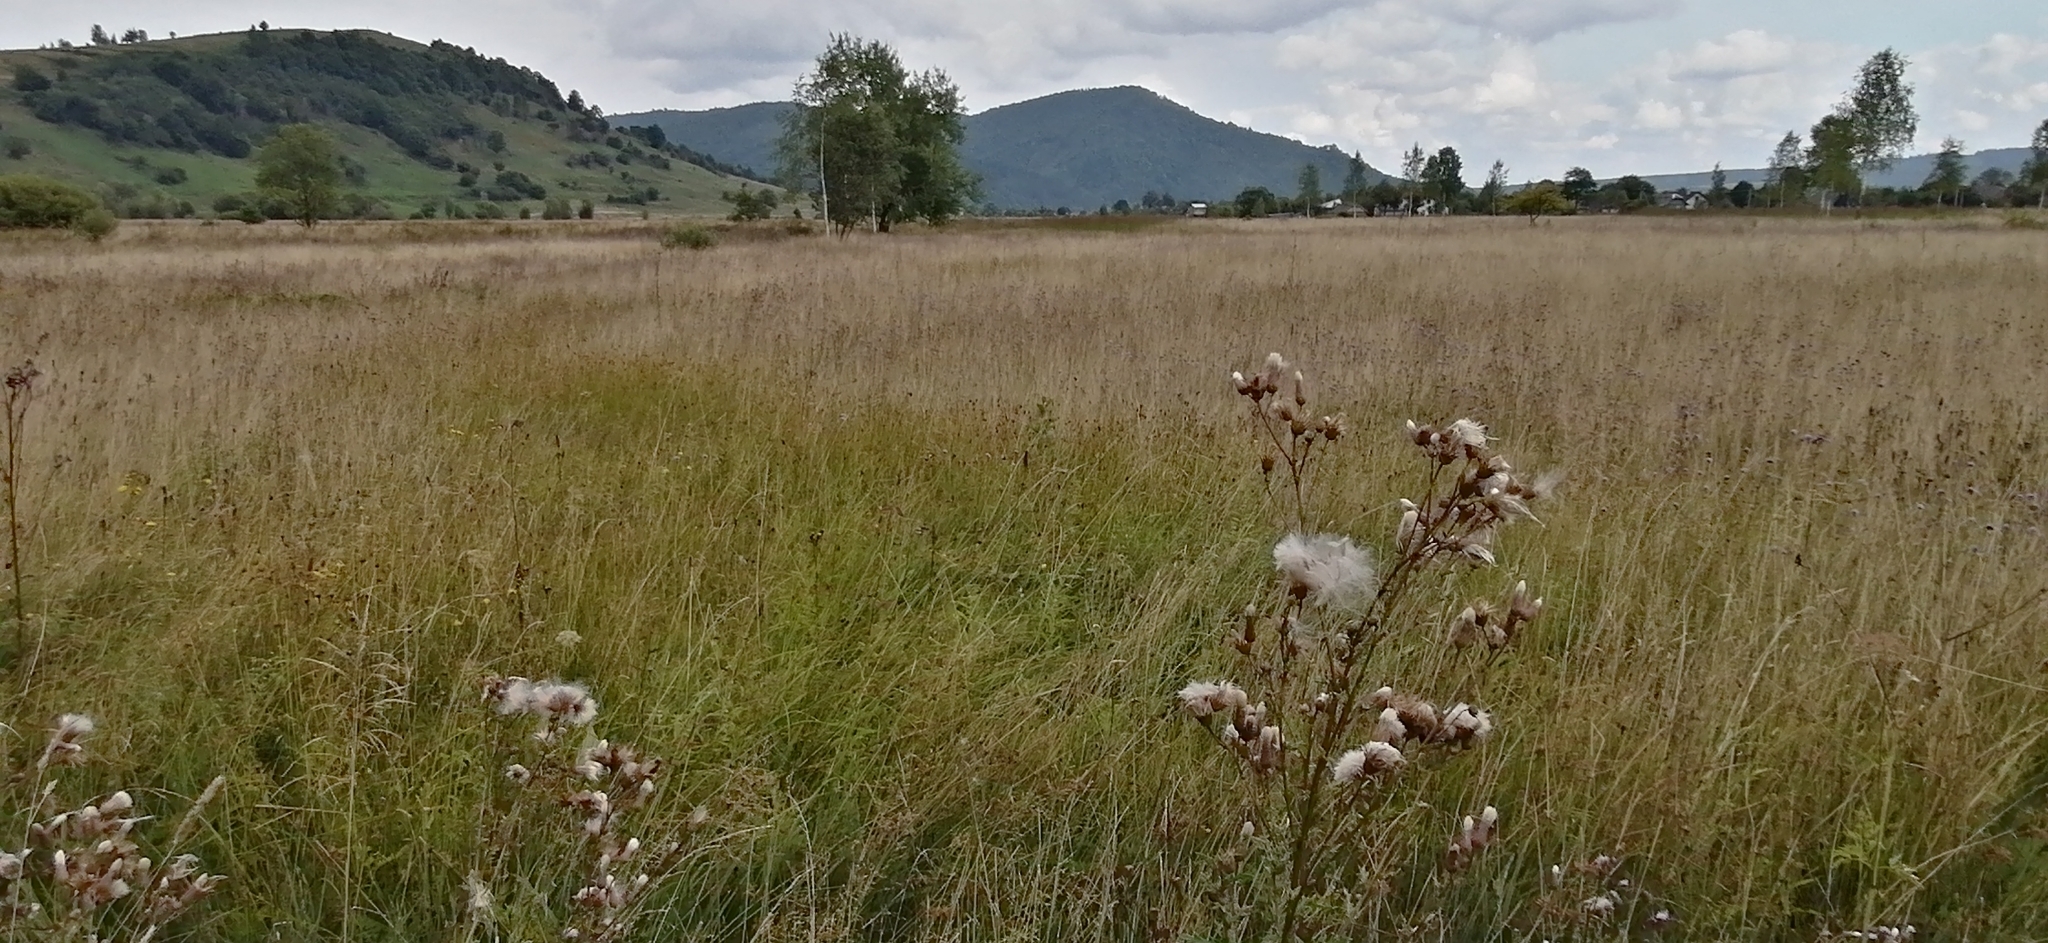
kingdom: Plantae
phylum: Tracheophyta
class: Magnoliopsida
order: Asterales
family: Asteraceae
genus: Cirsium
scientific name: Cirsium arvense
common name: Creeping thistle
